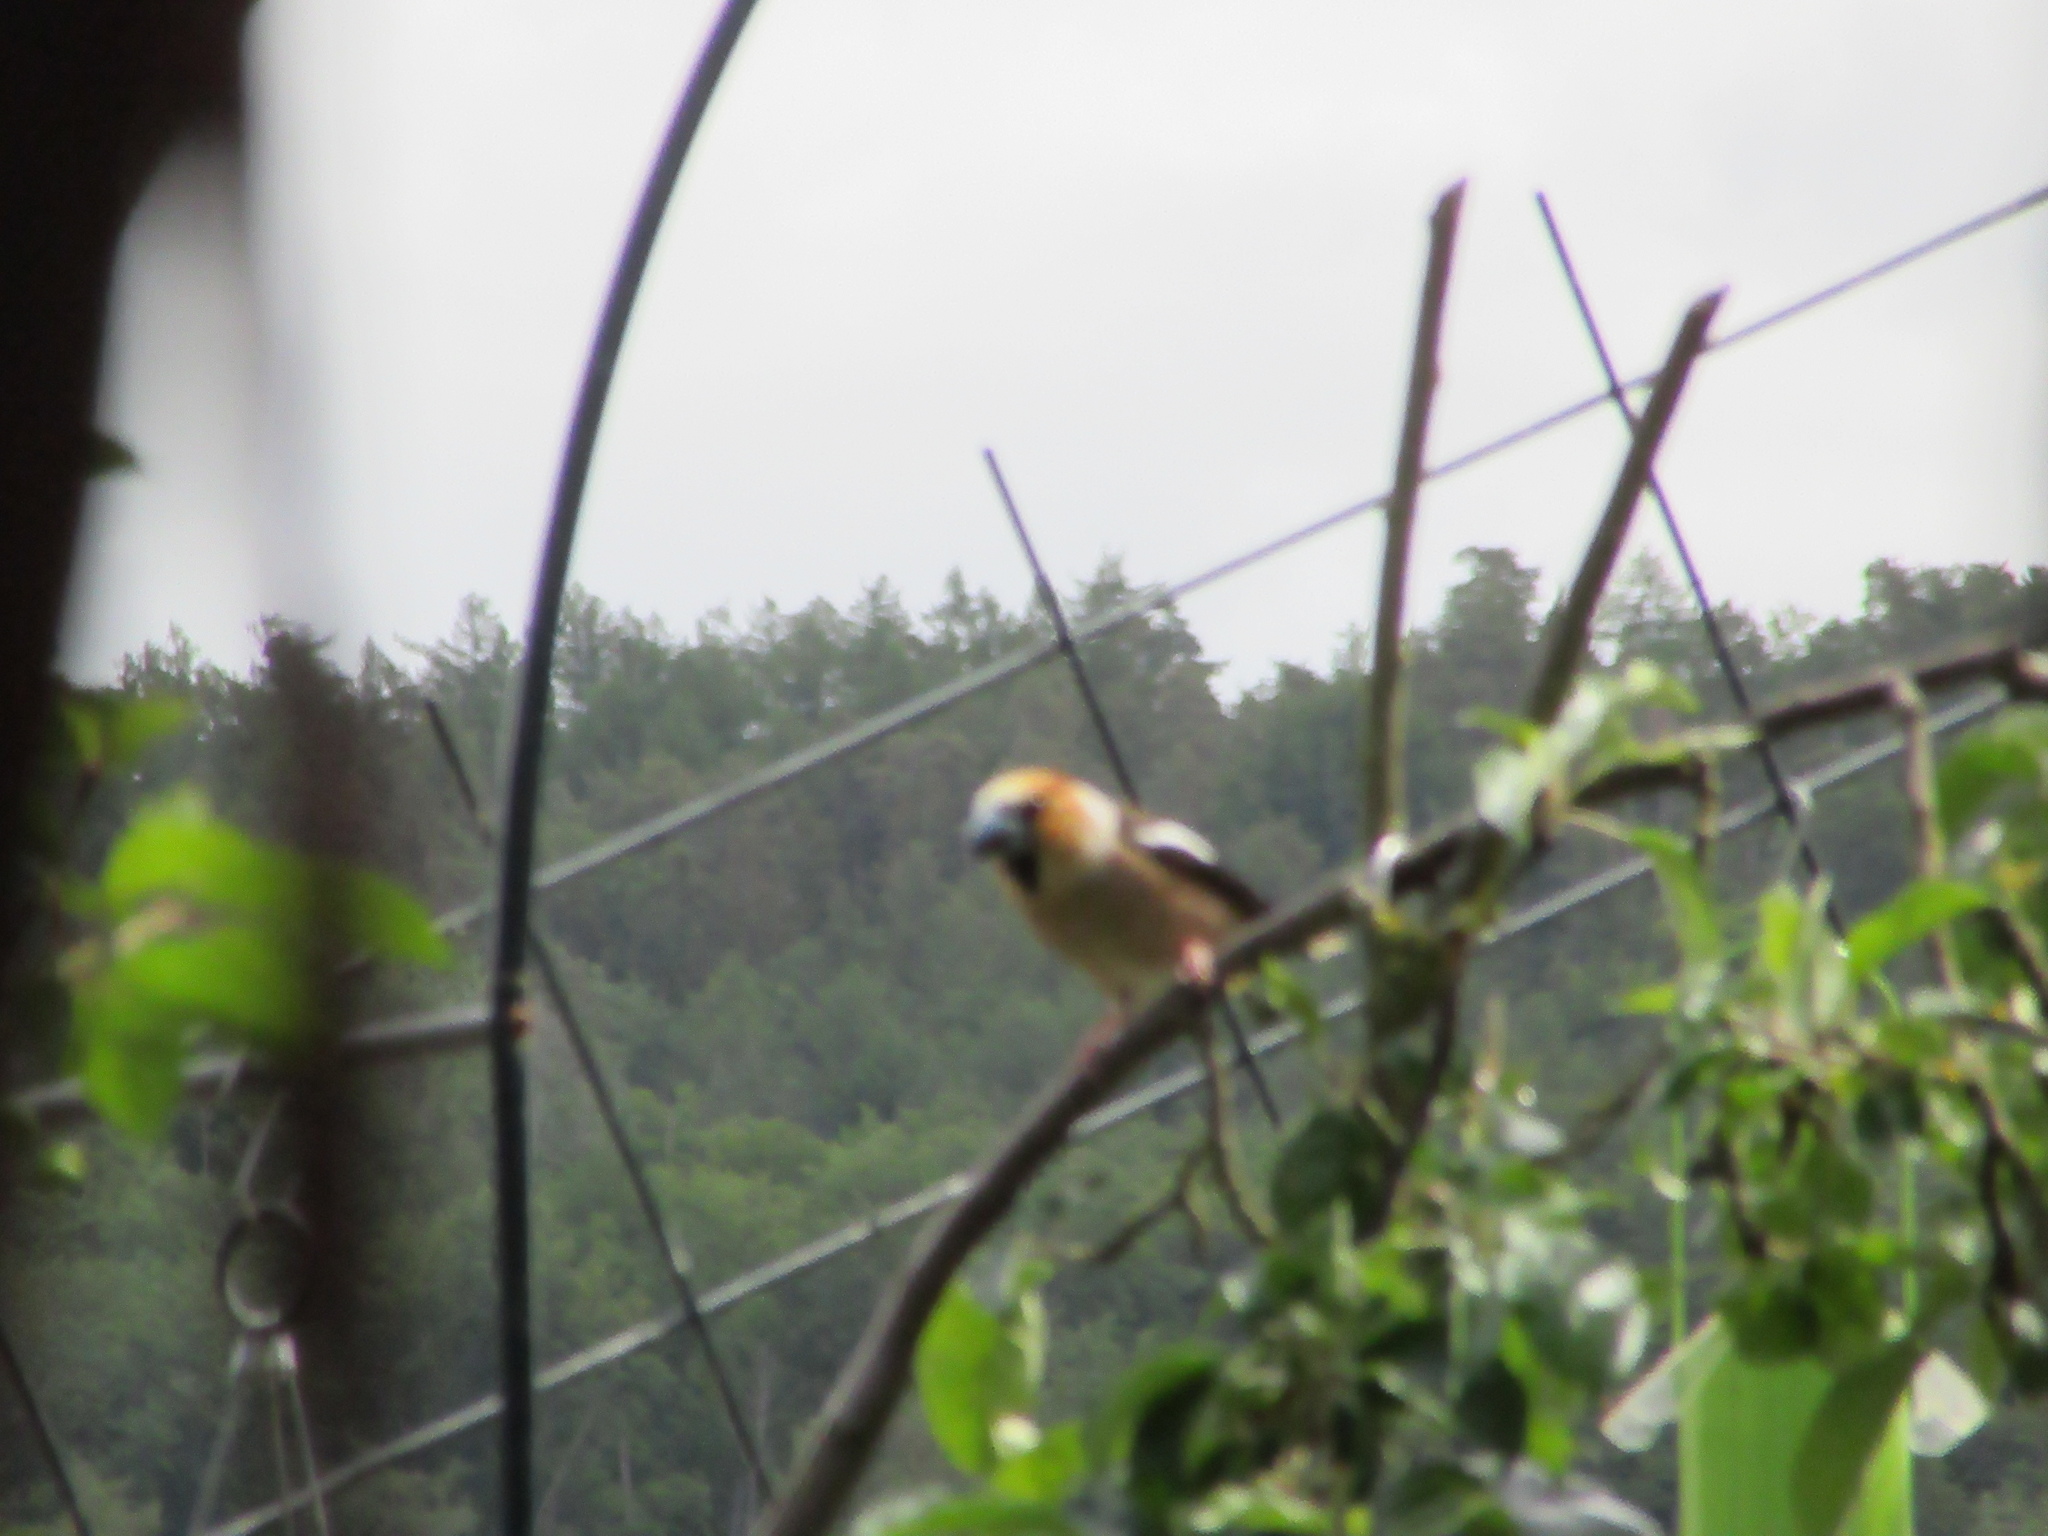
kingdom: Animalia
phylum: Chordata
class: Aves
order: Passeriformes
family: Fringillidae
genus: Coccothraustes
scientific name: Coccothraustes coccothraustes
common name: Hawfinch
